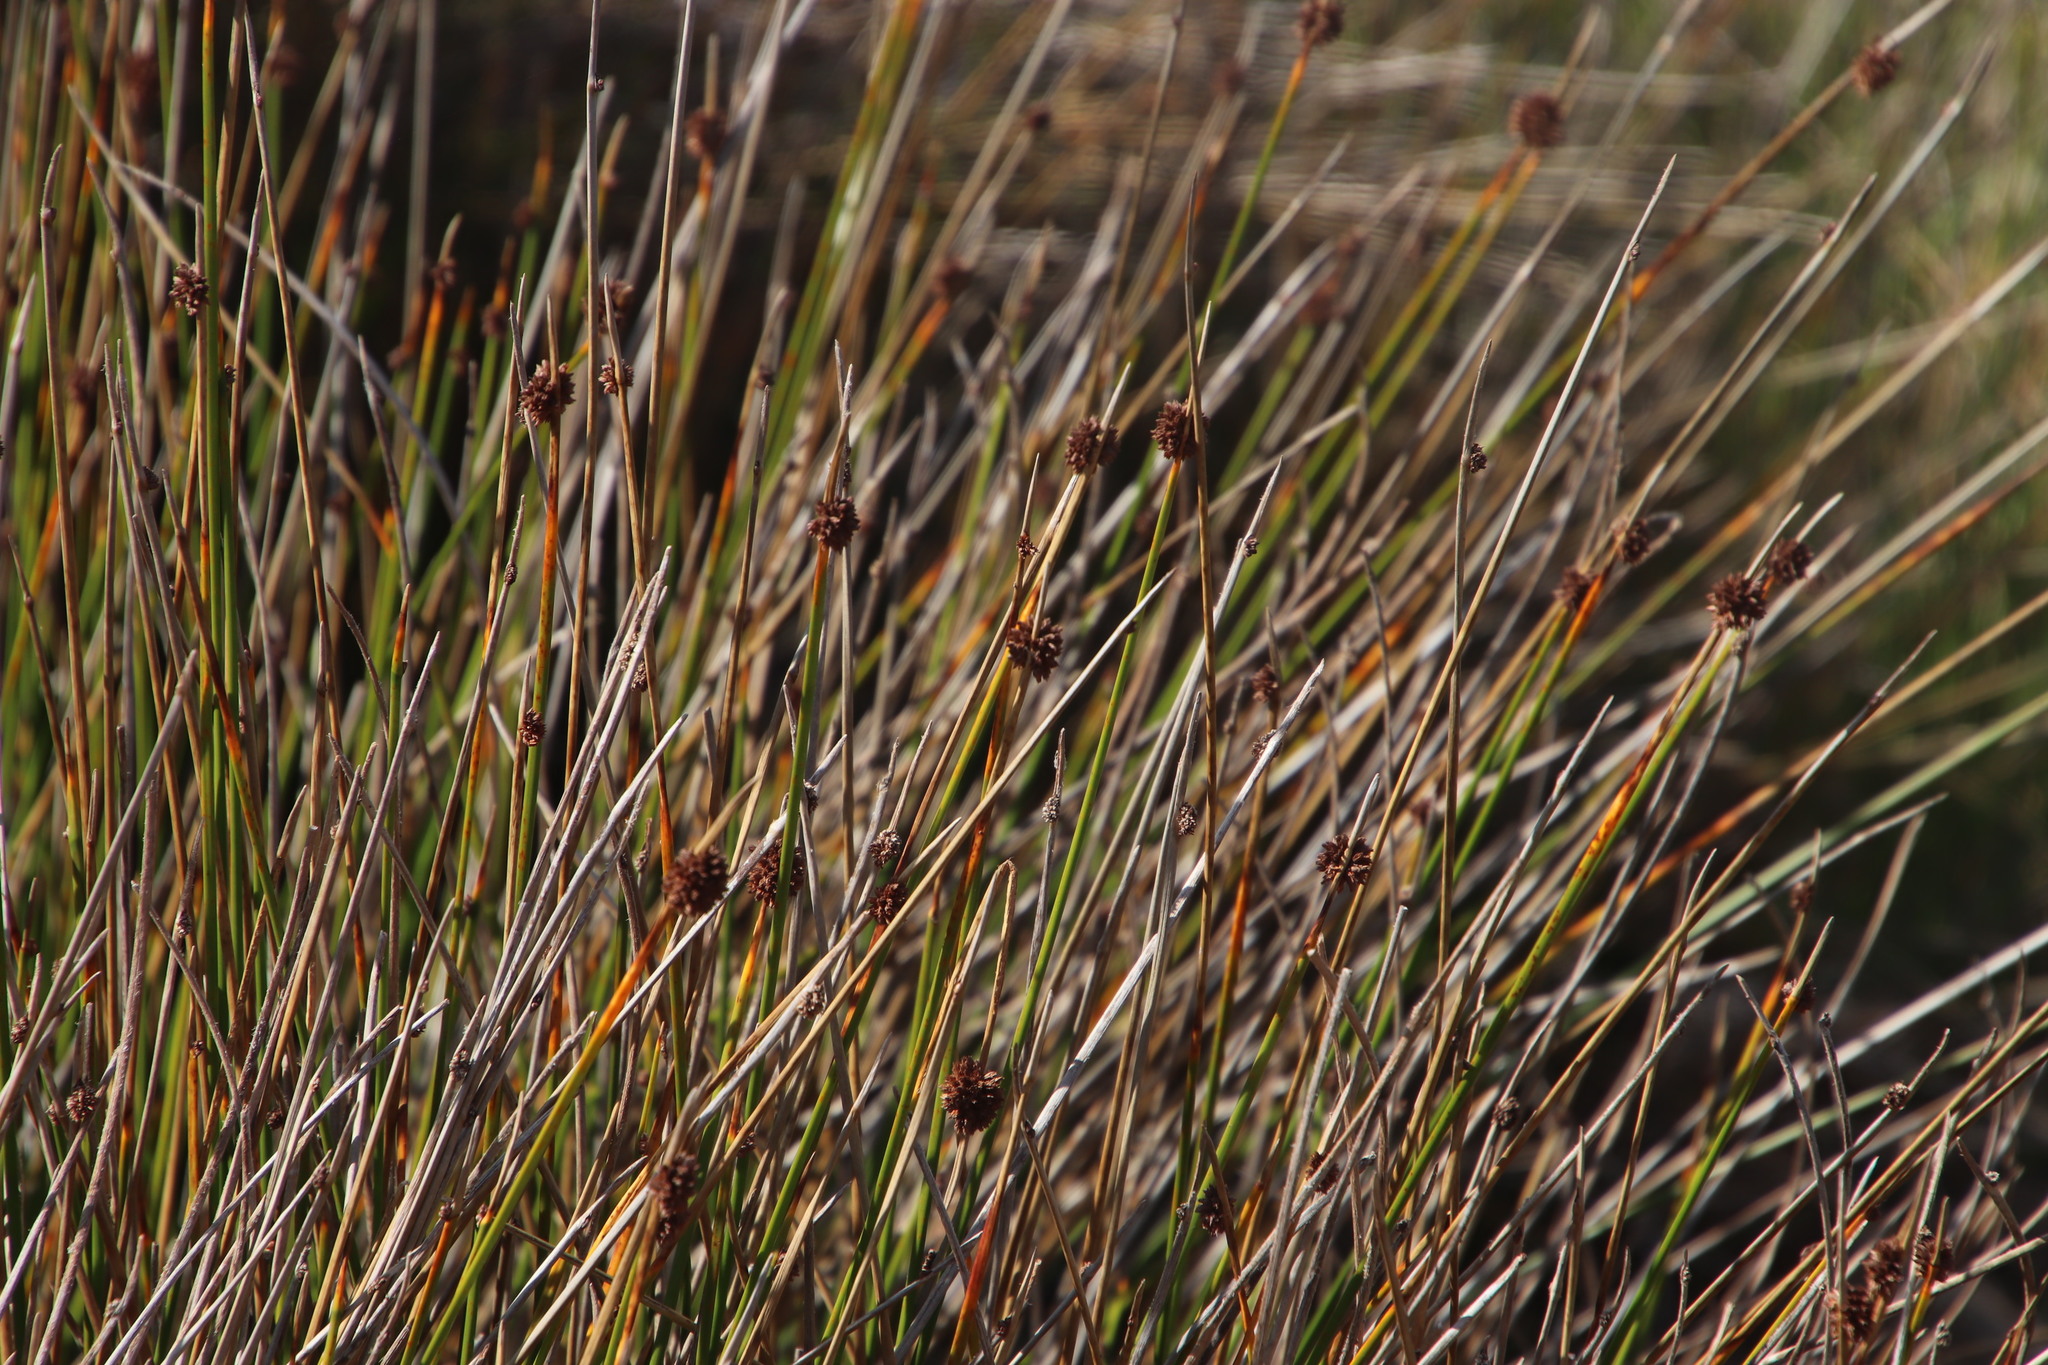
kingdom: Plantae
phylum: Tracheophyta
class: Liliopsida
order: Poales
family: Cyperaceae
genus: Ficinia
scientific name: Ficinia nodosa
